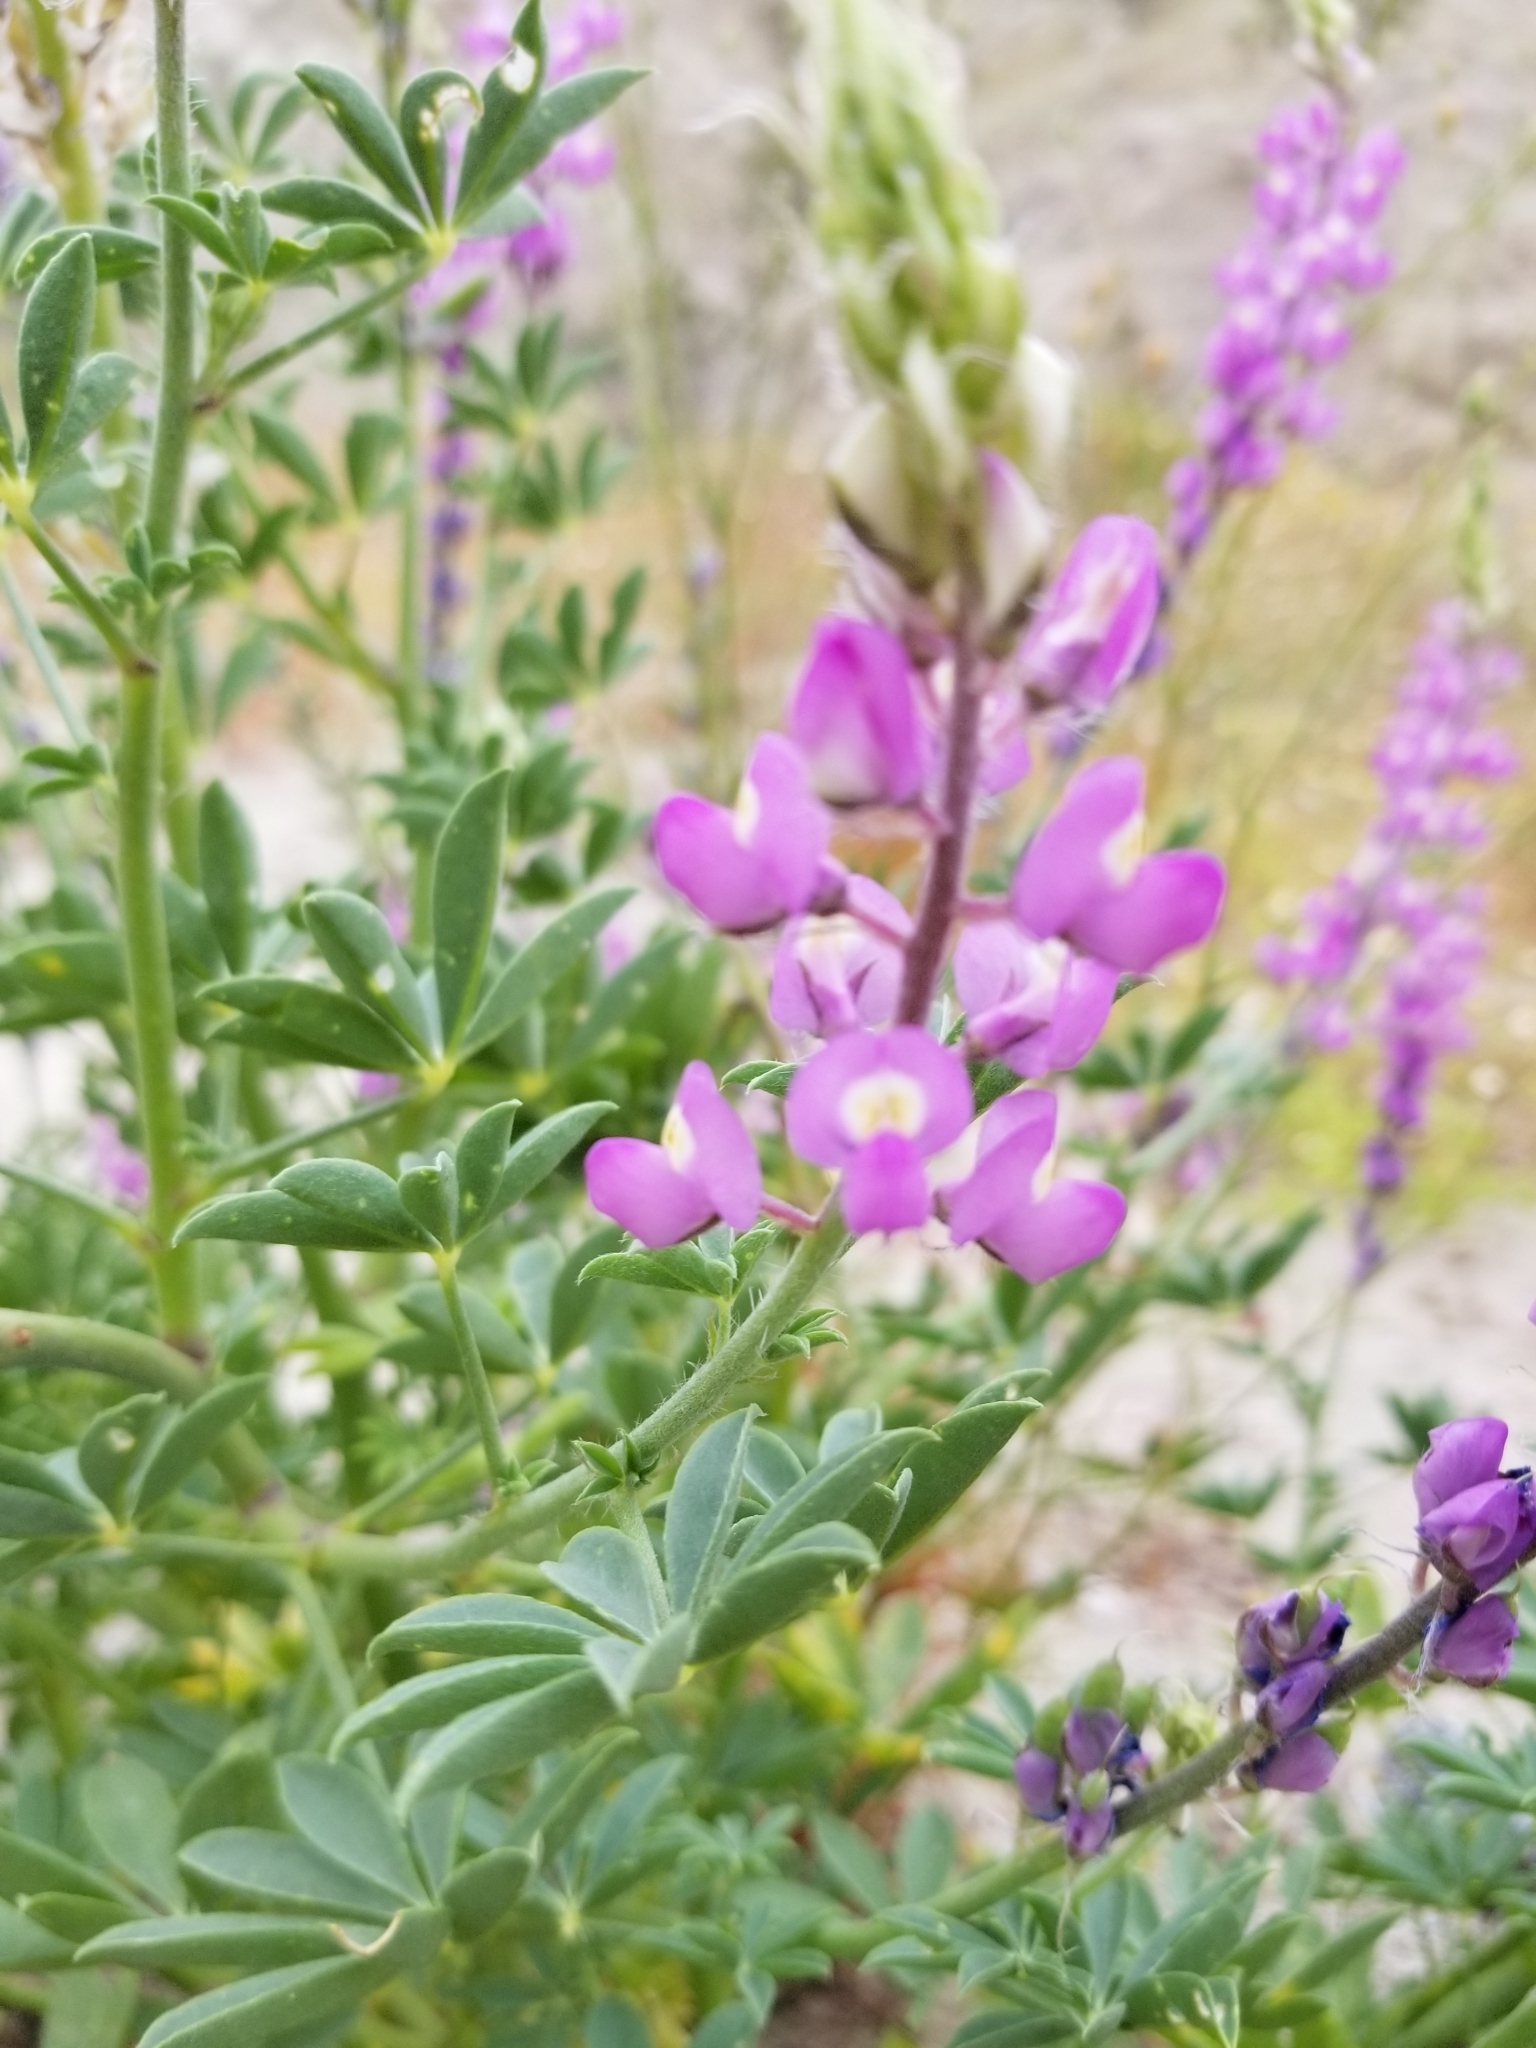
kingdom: Plantae
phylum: Tracheophyta
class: Magnoliopsida
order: Fabales
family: Fabaceae
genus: Lupinus
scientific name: Lupinus arizonicus
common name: Arizona lupine
